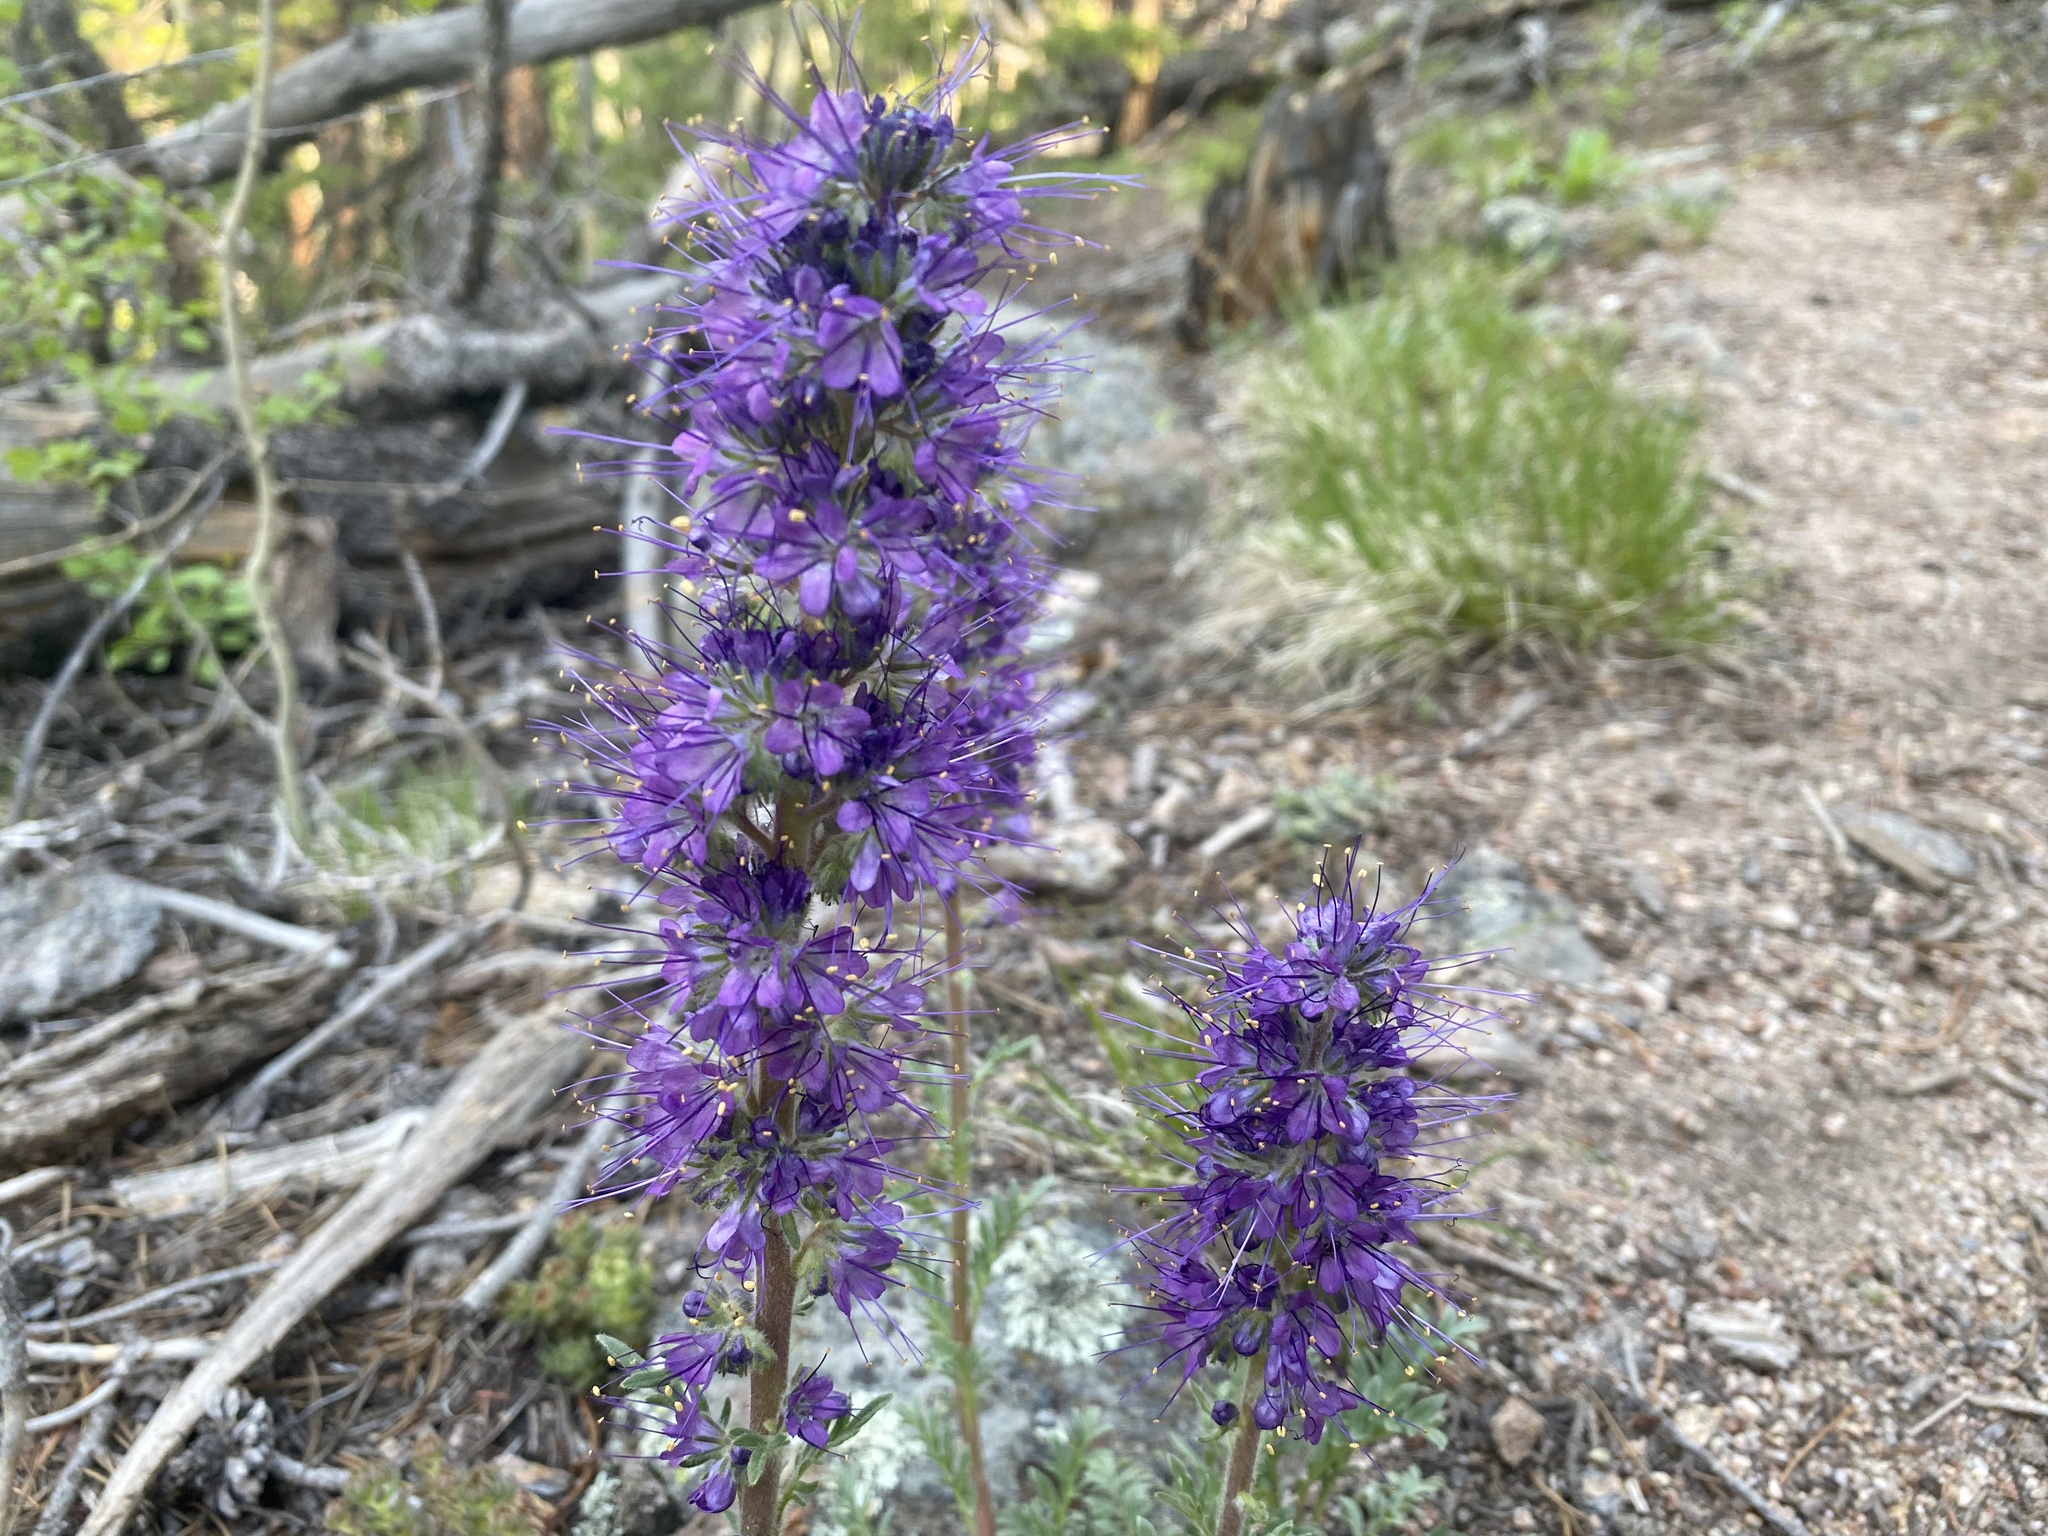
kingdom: Plantae
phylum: Tracheophyta
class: Magnoliopsida
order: Boraginales
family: Hydrophyllaceae
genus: Phacelia
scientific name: Phacelia sericea
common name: Silky phacelia
